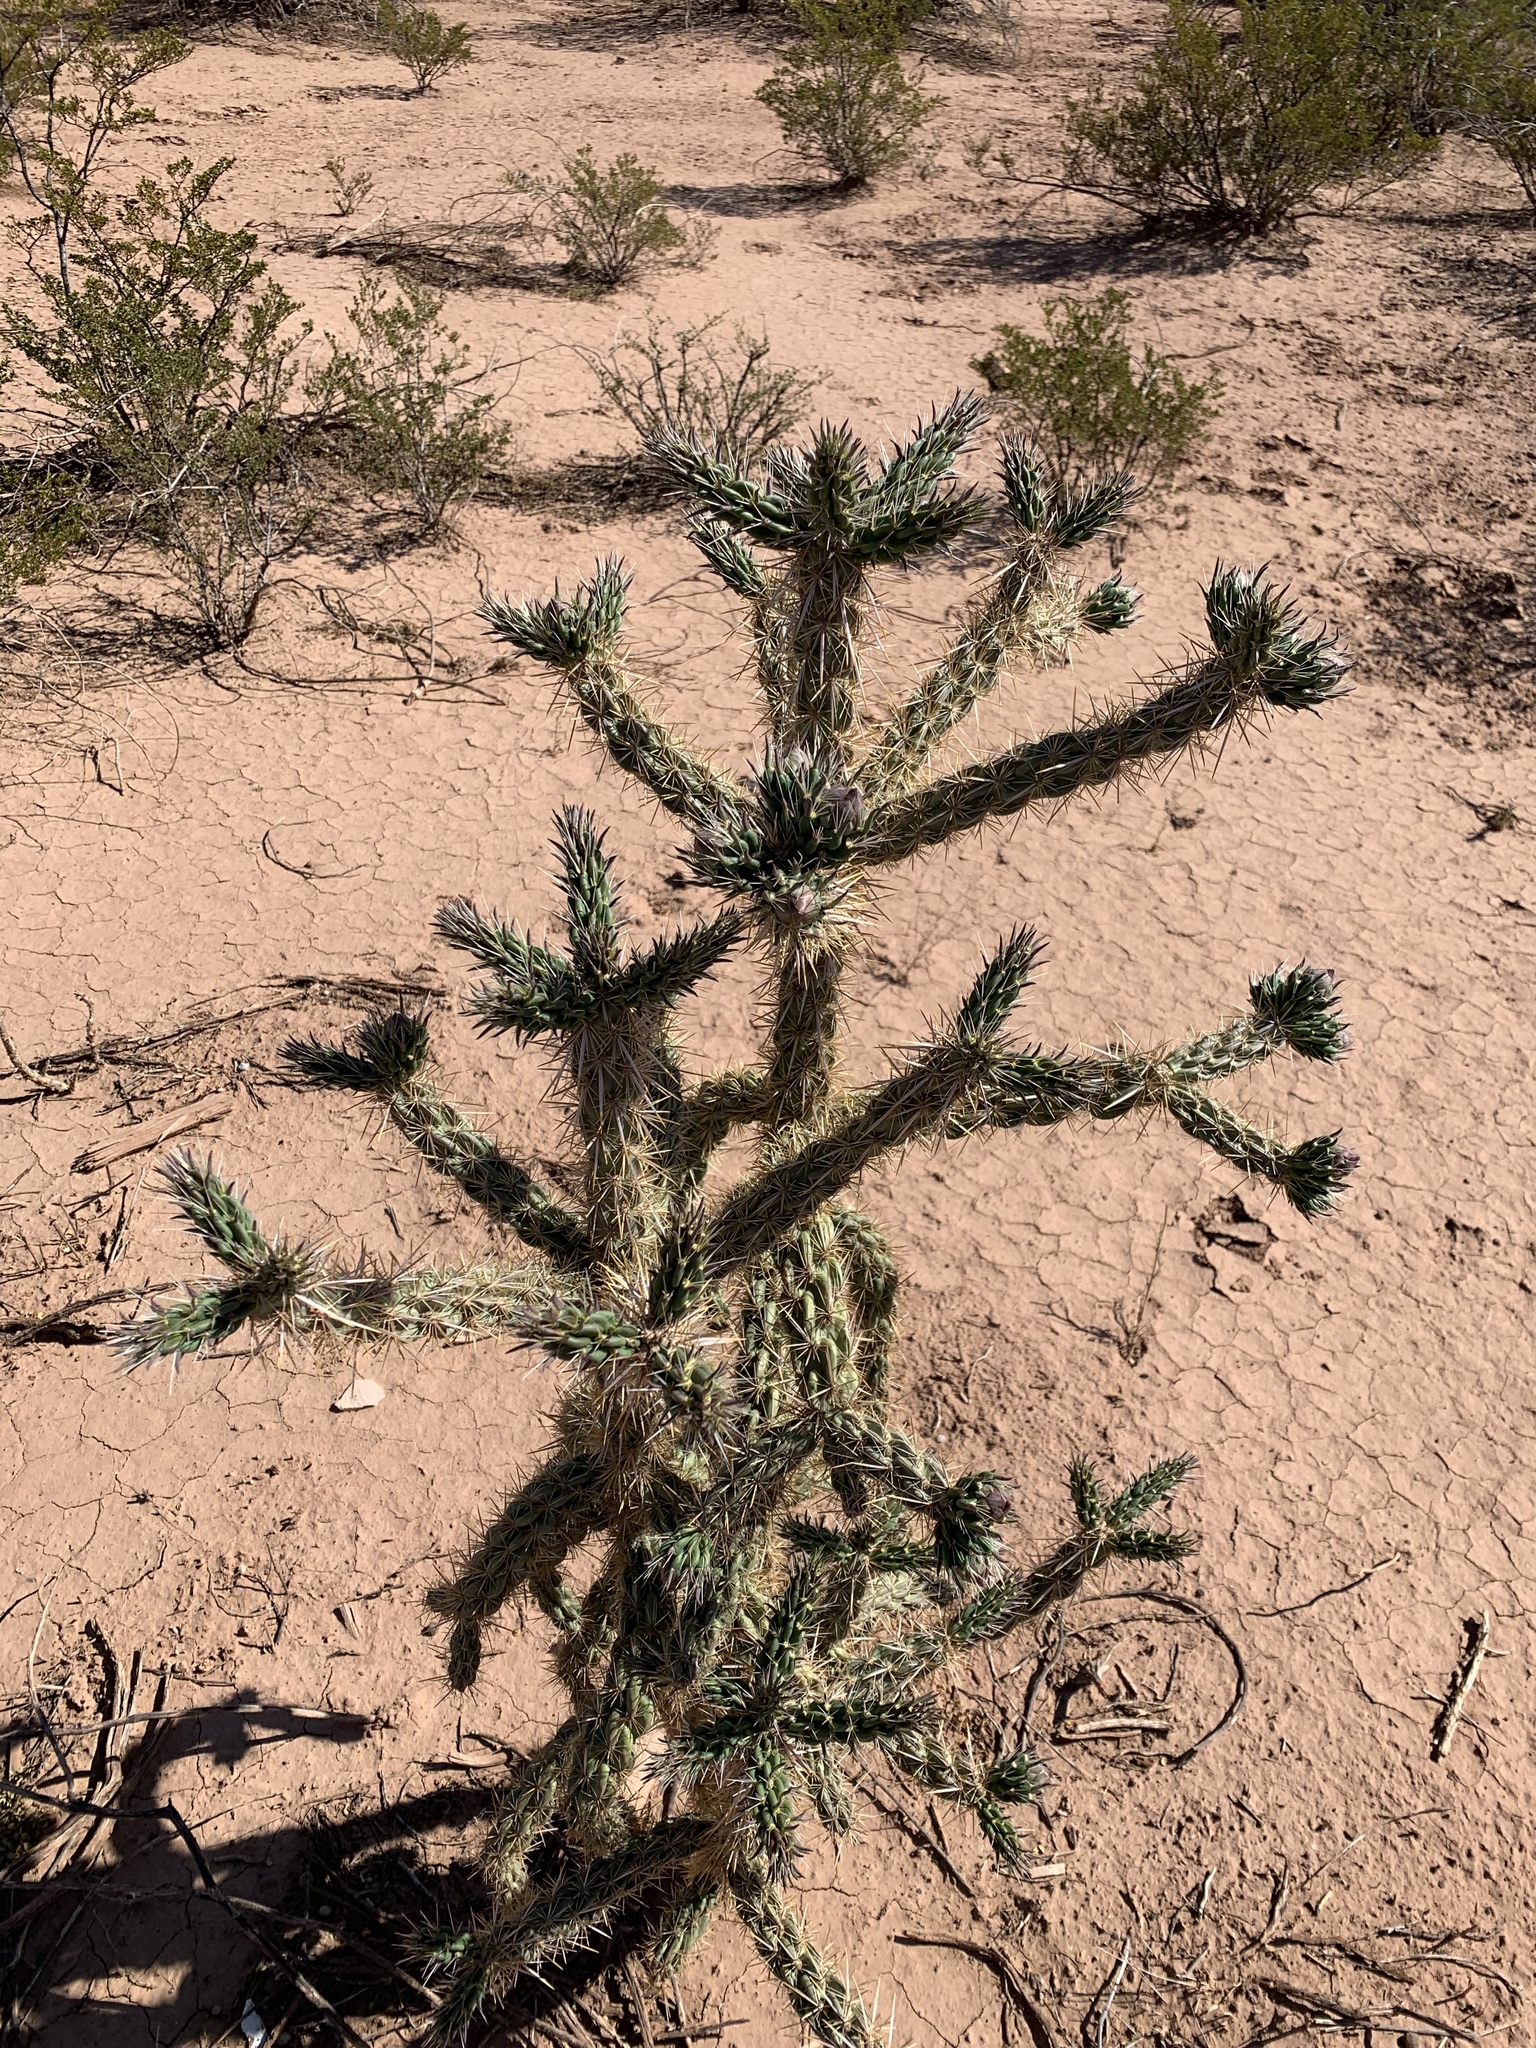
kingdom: Plantae
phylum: Tracheophyta
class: Magnoliopsida
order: Caryophyllales
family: Cactaceae
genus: Cylindropuntia
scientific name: Cylindropuntia imbricata
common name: Candelabrum cactus
